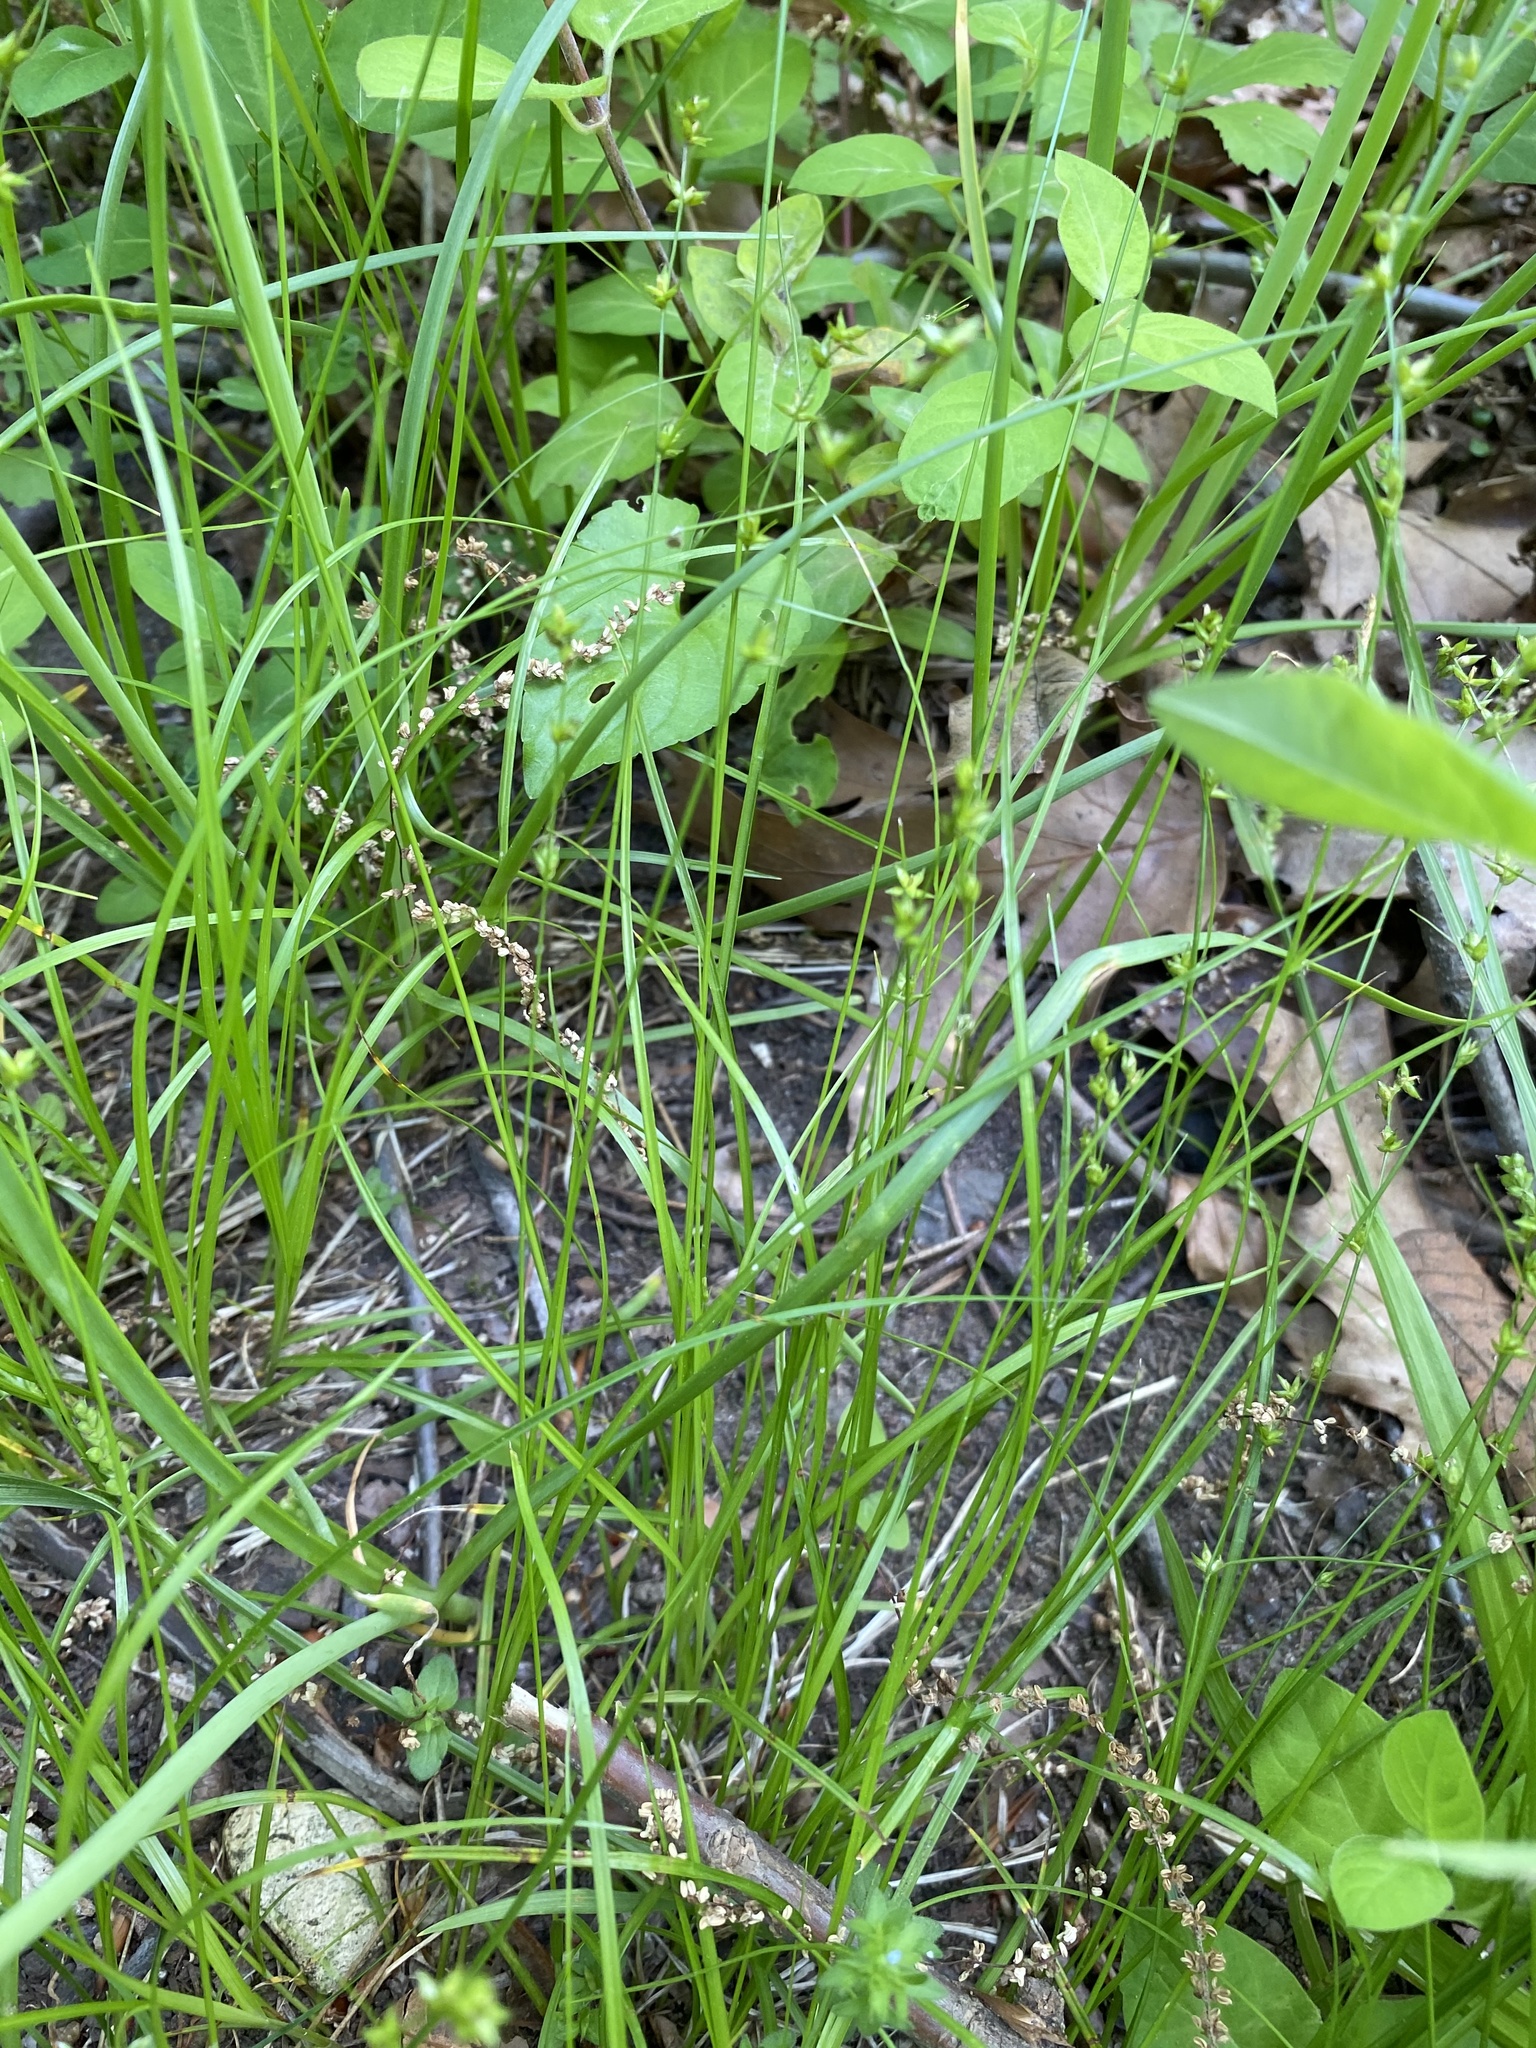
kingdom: Plantae
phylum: Tracheophyta
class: Liliopsida
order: Poales
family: Cyperaceae
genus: Carex
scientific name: Carex radiata
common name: Eastern star sedge
